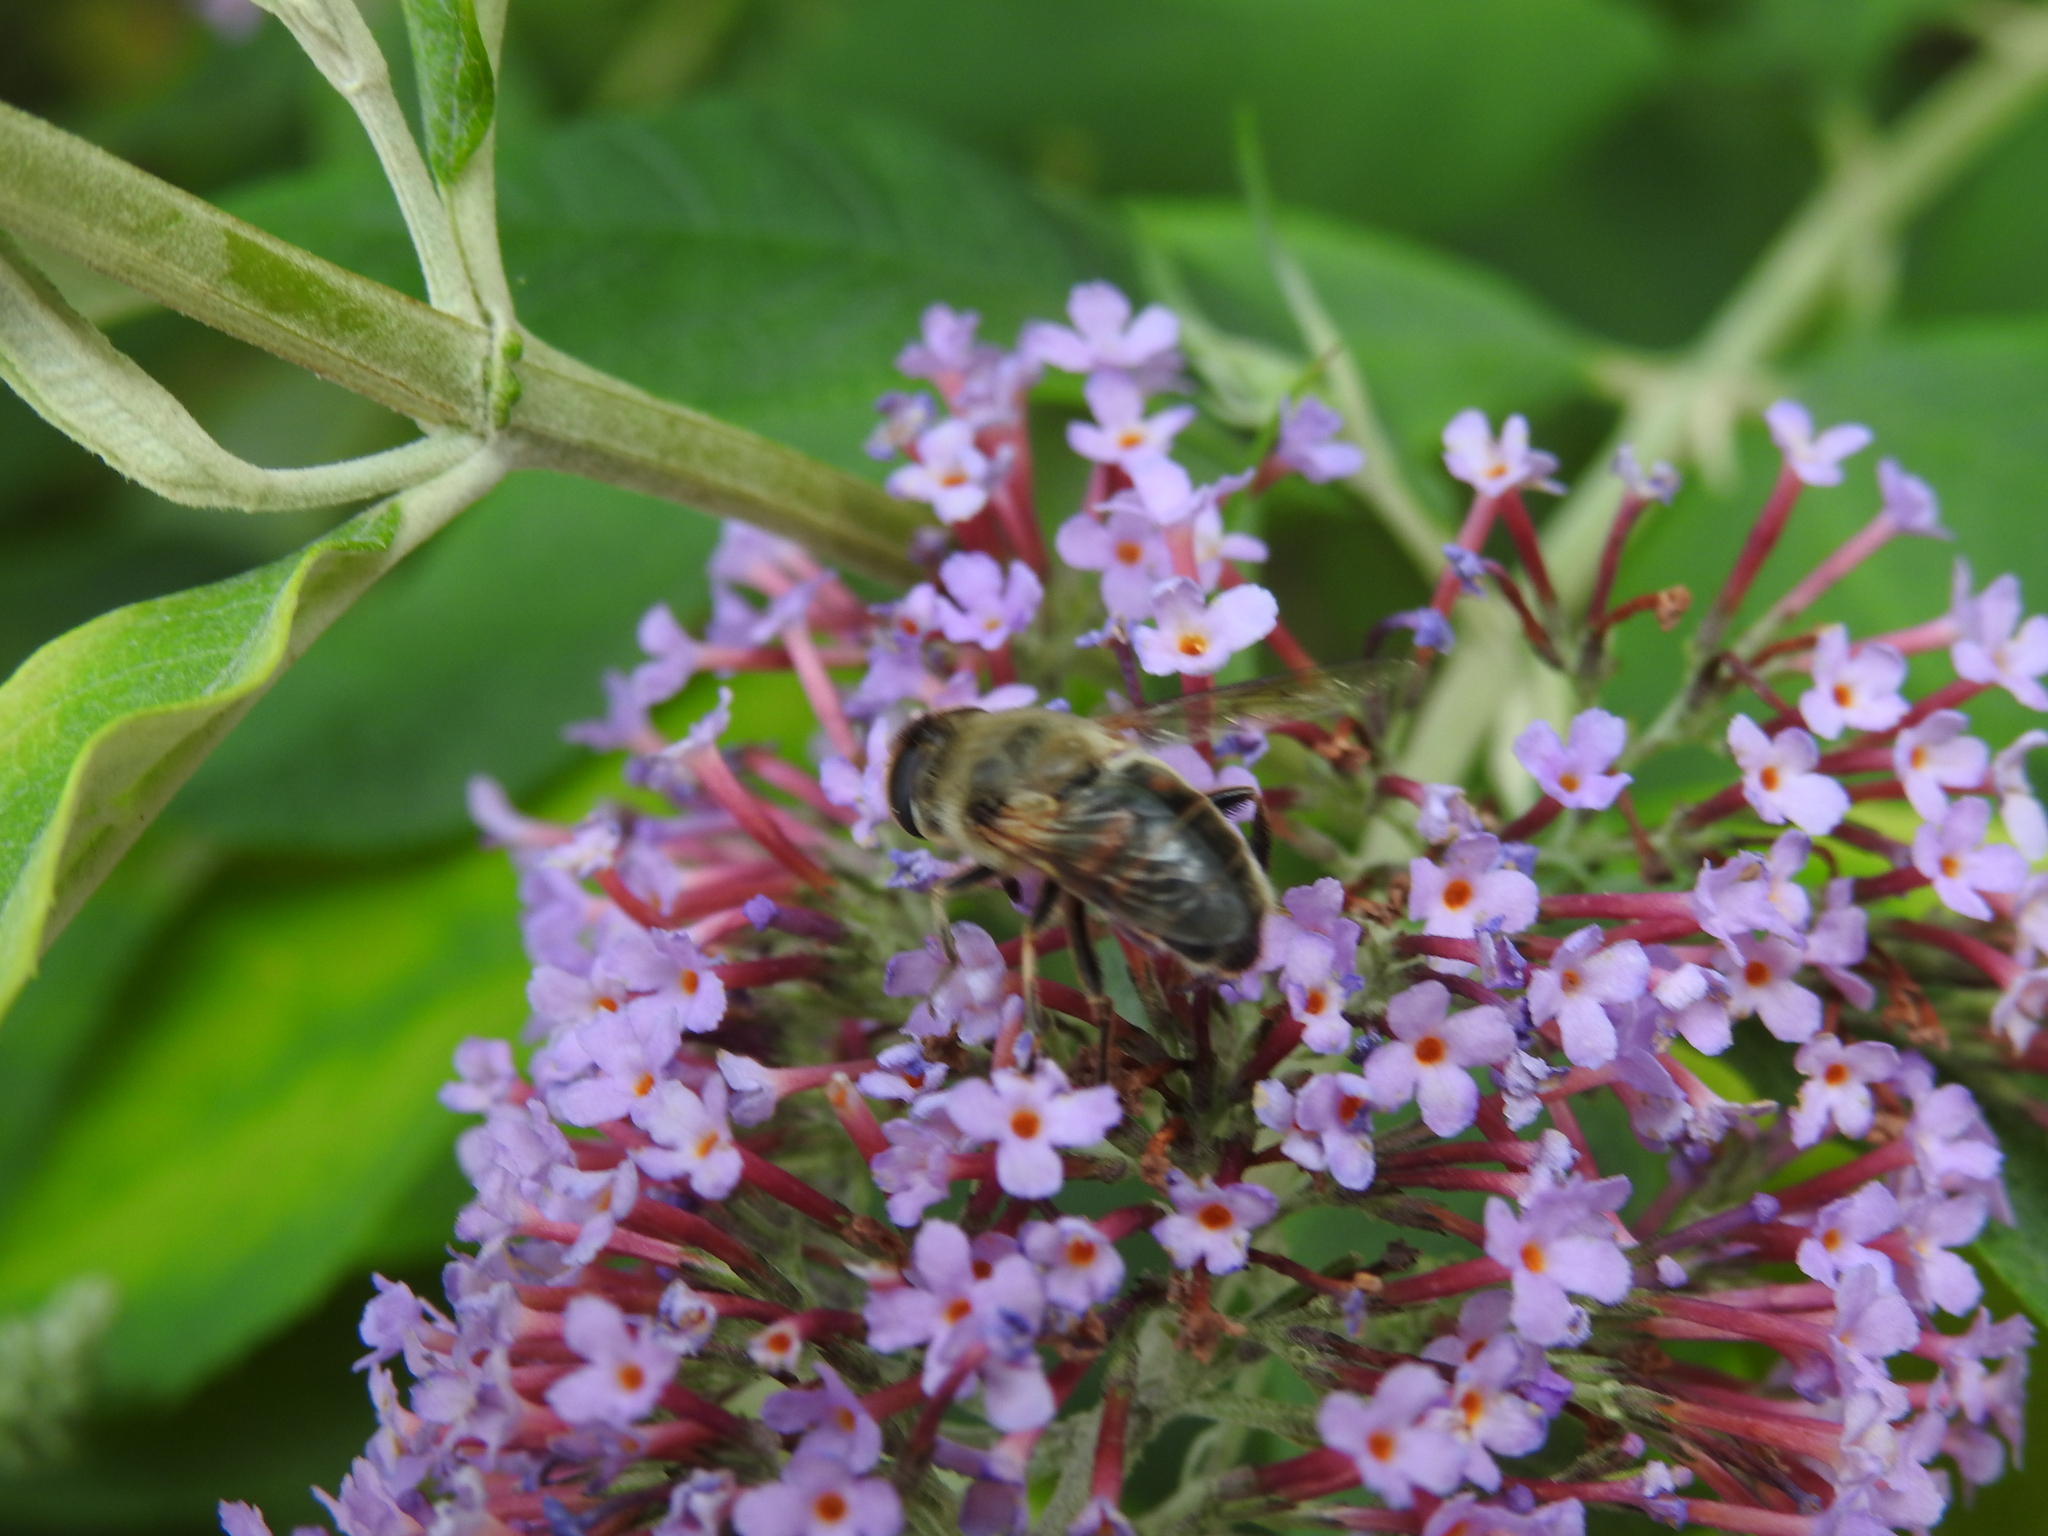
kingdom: Animalia
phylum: Arthropoda
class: Insecta
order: Diptera
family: Syrphidae
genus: Eristalis
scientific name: Eristalis tenax
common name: Drone fly
